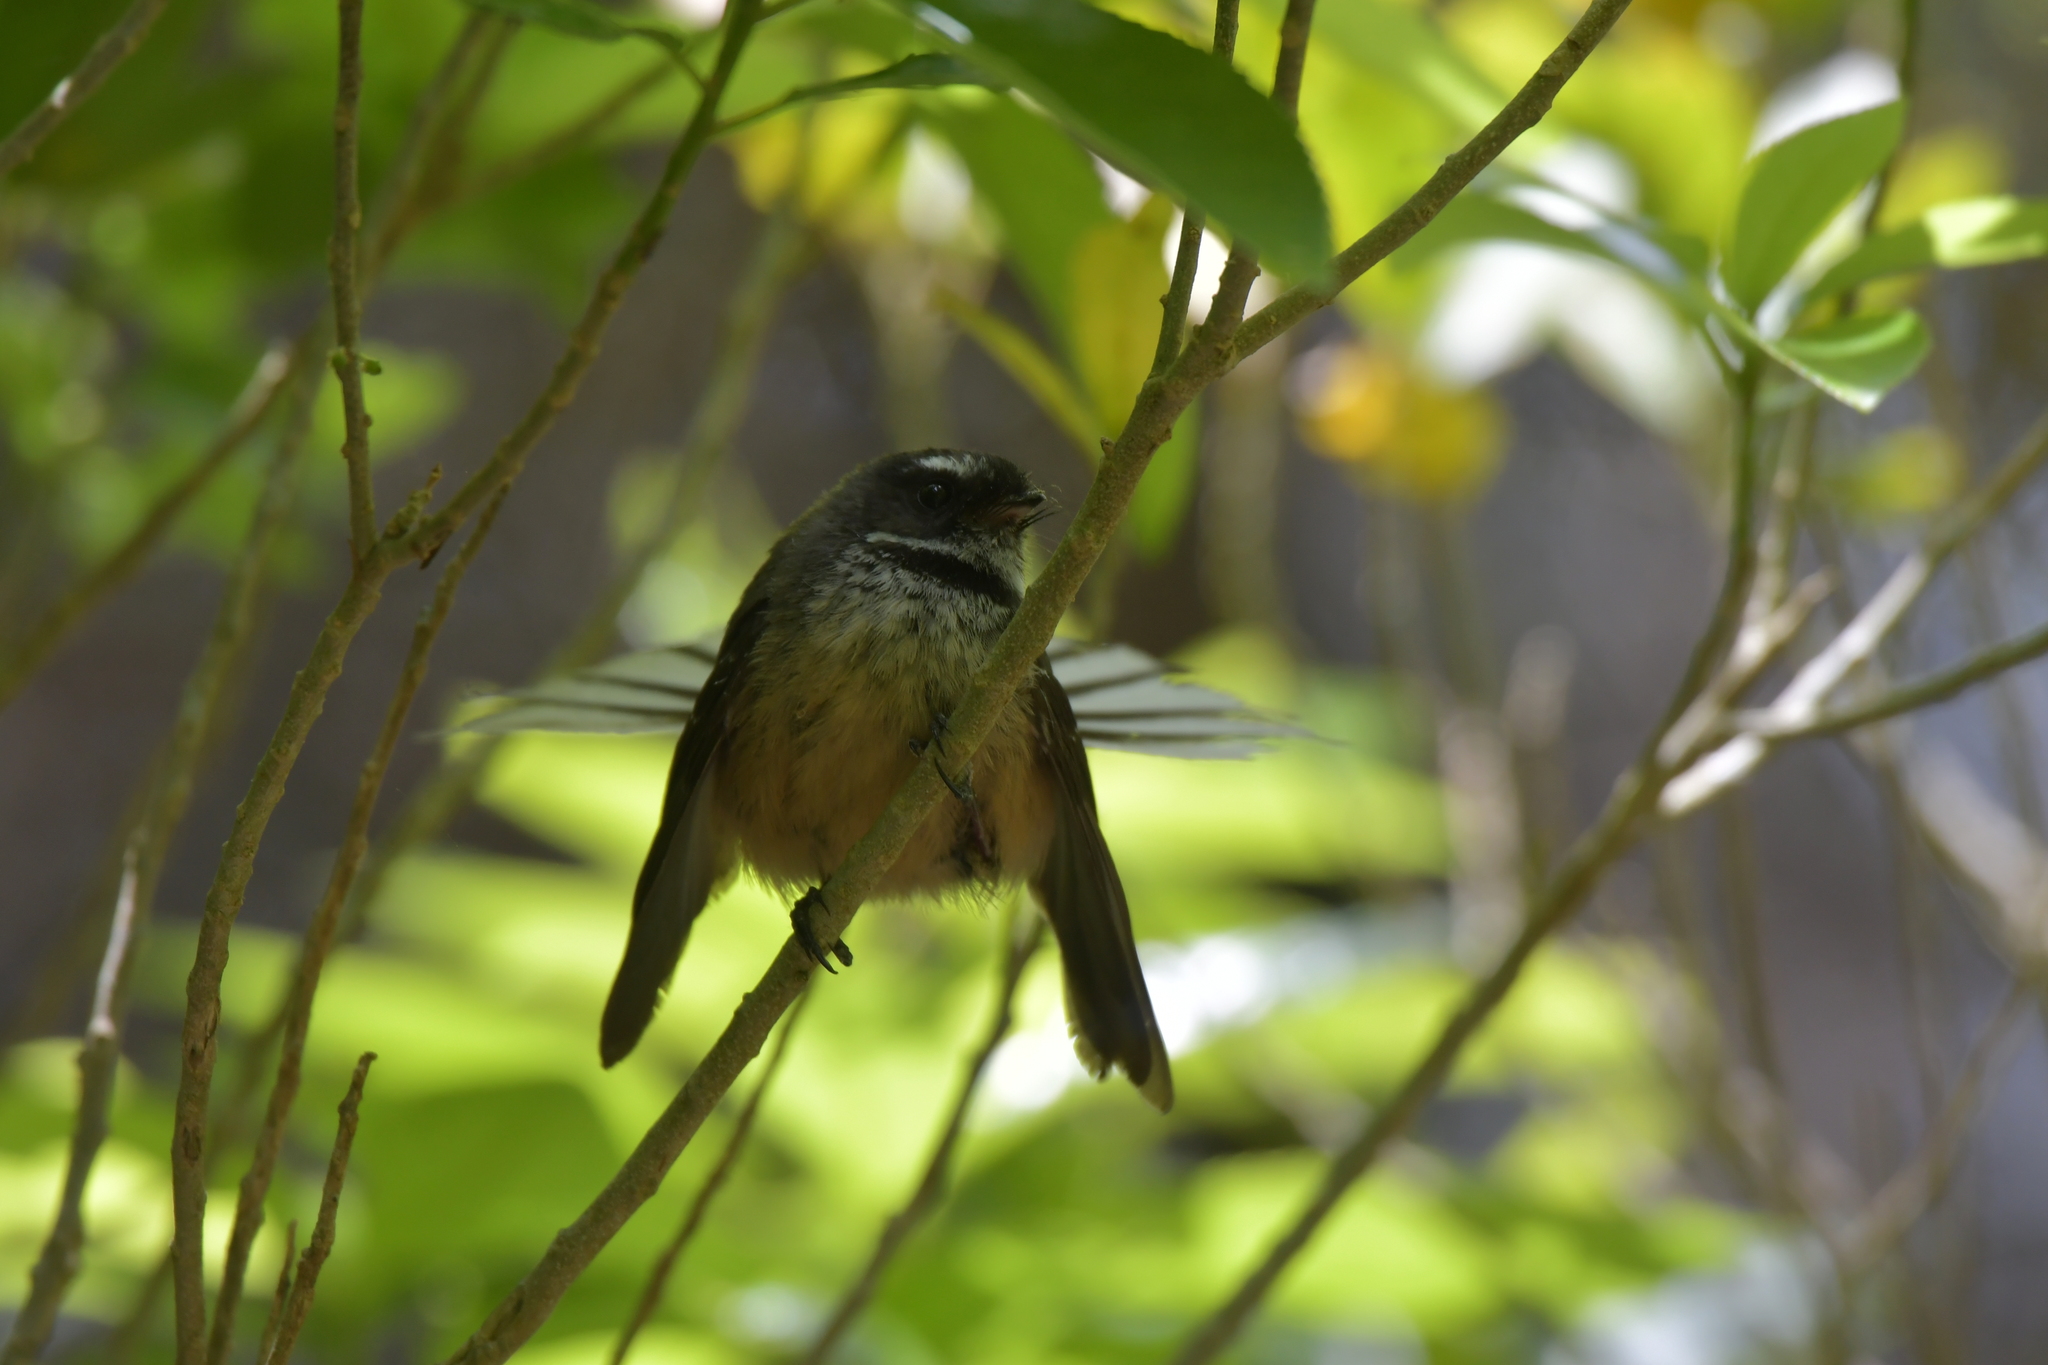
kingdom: Animalia
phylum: Chordata
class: Aves
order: Passeriformes
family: Rhipiduridae
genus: Rhipidura
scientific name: Rhipidura fuliginosa
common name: New zealand fantail
